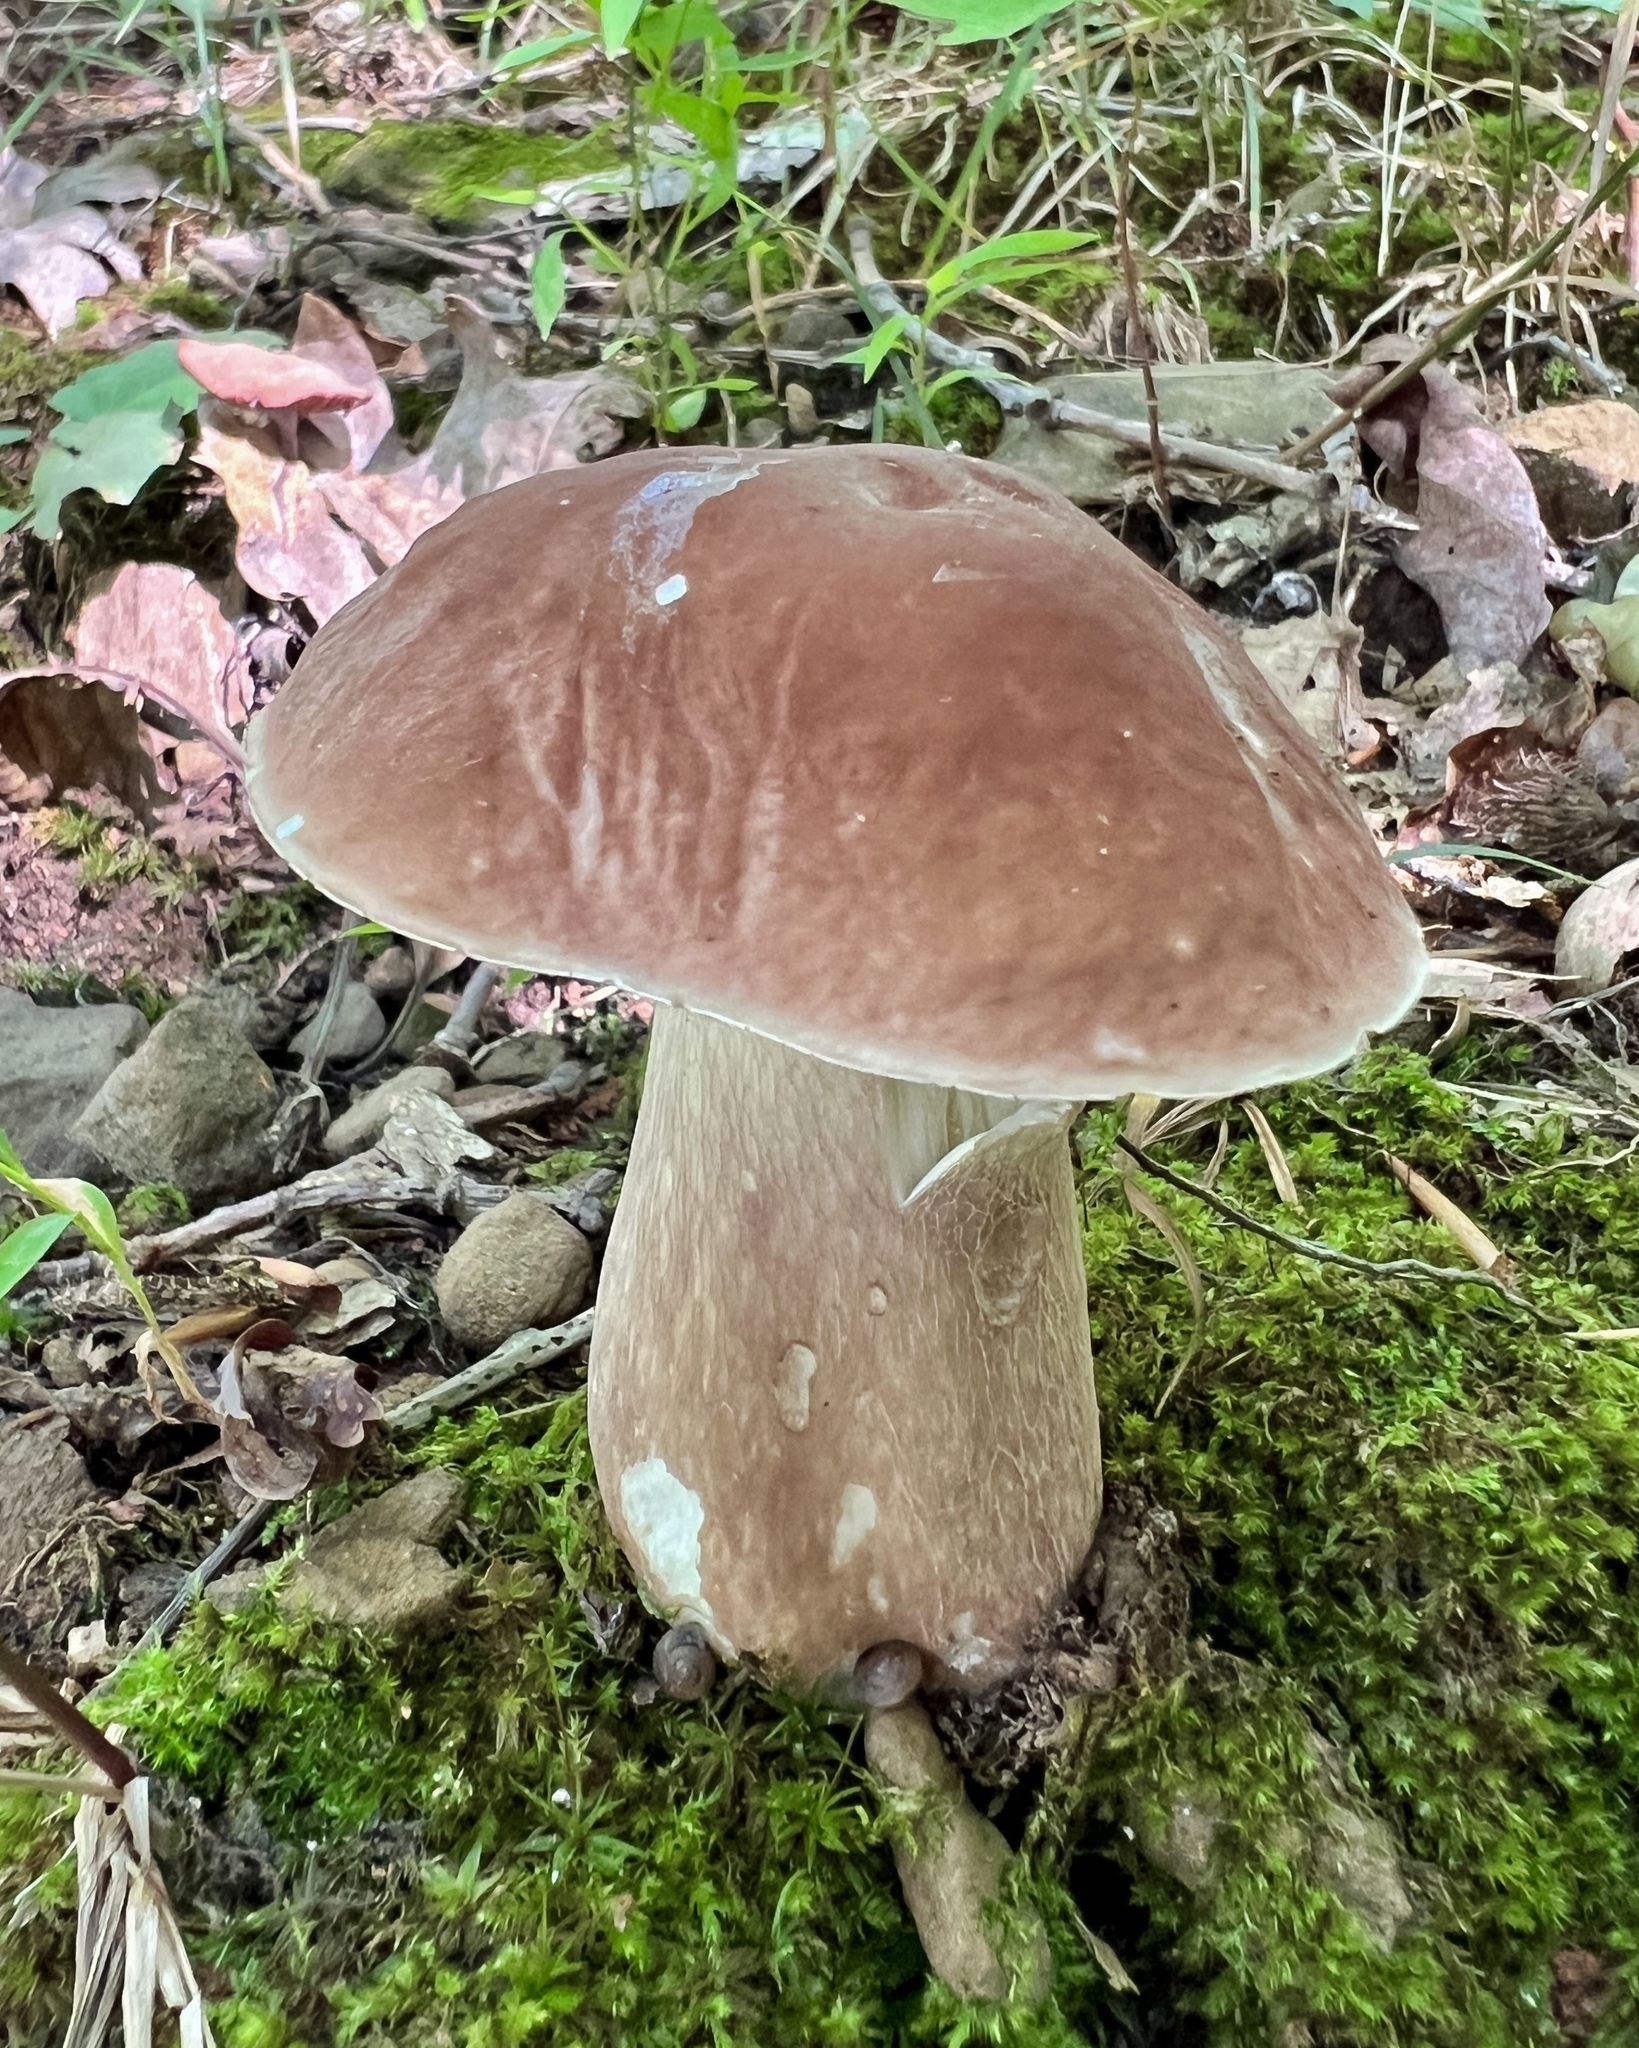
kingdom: Fungi
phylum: Basidiomycota
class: Agaricomycetes
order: Boletales
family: Boletaceae
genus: Tylopilus
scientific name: Tylopilus felleus
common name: Bitter bolete
